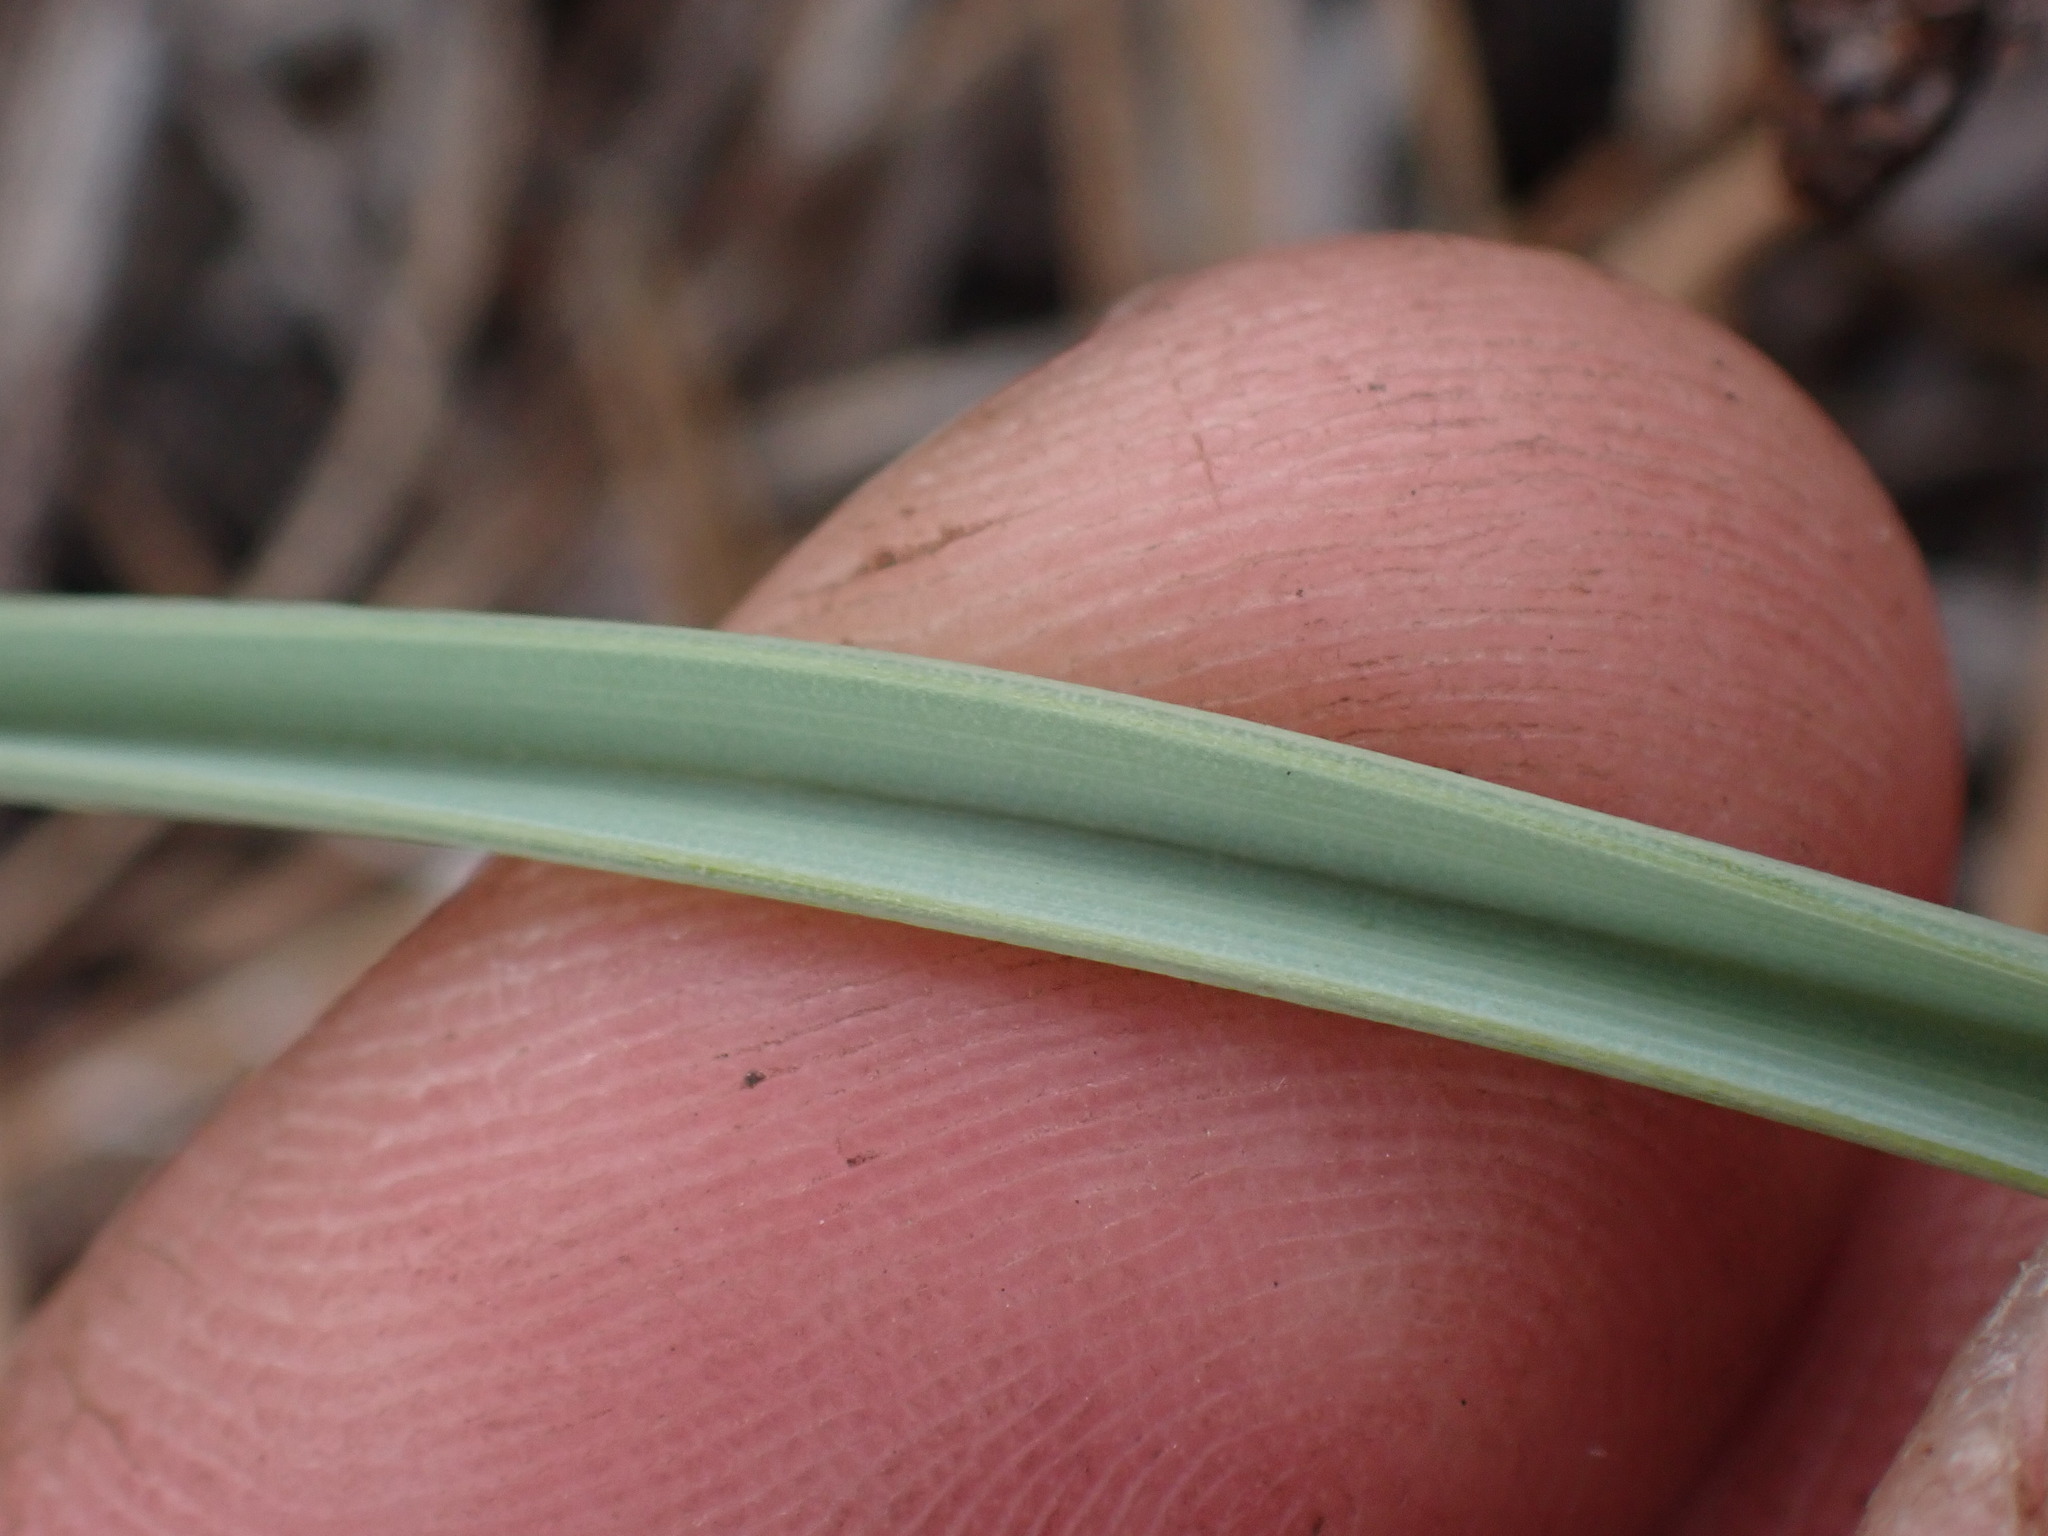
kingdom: Plantae
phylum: Tracheophyta
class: Liliopsida
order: Liliales
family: Liliaceae
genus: Calochortus
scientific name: Calochortus macrocarpus
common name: Green-band mariposa lily
